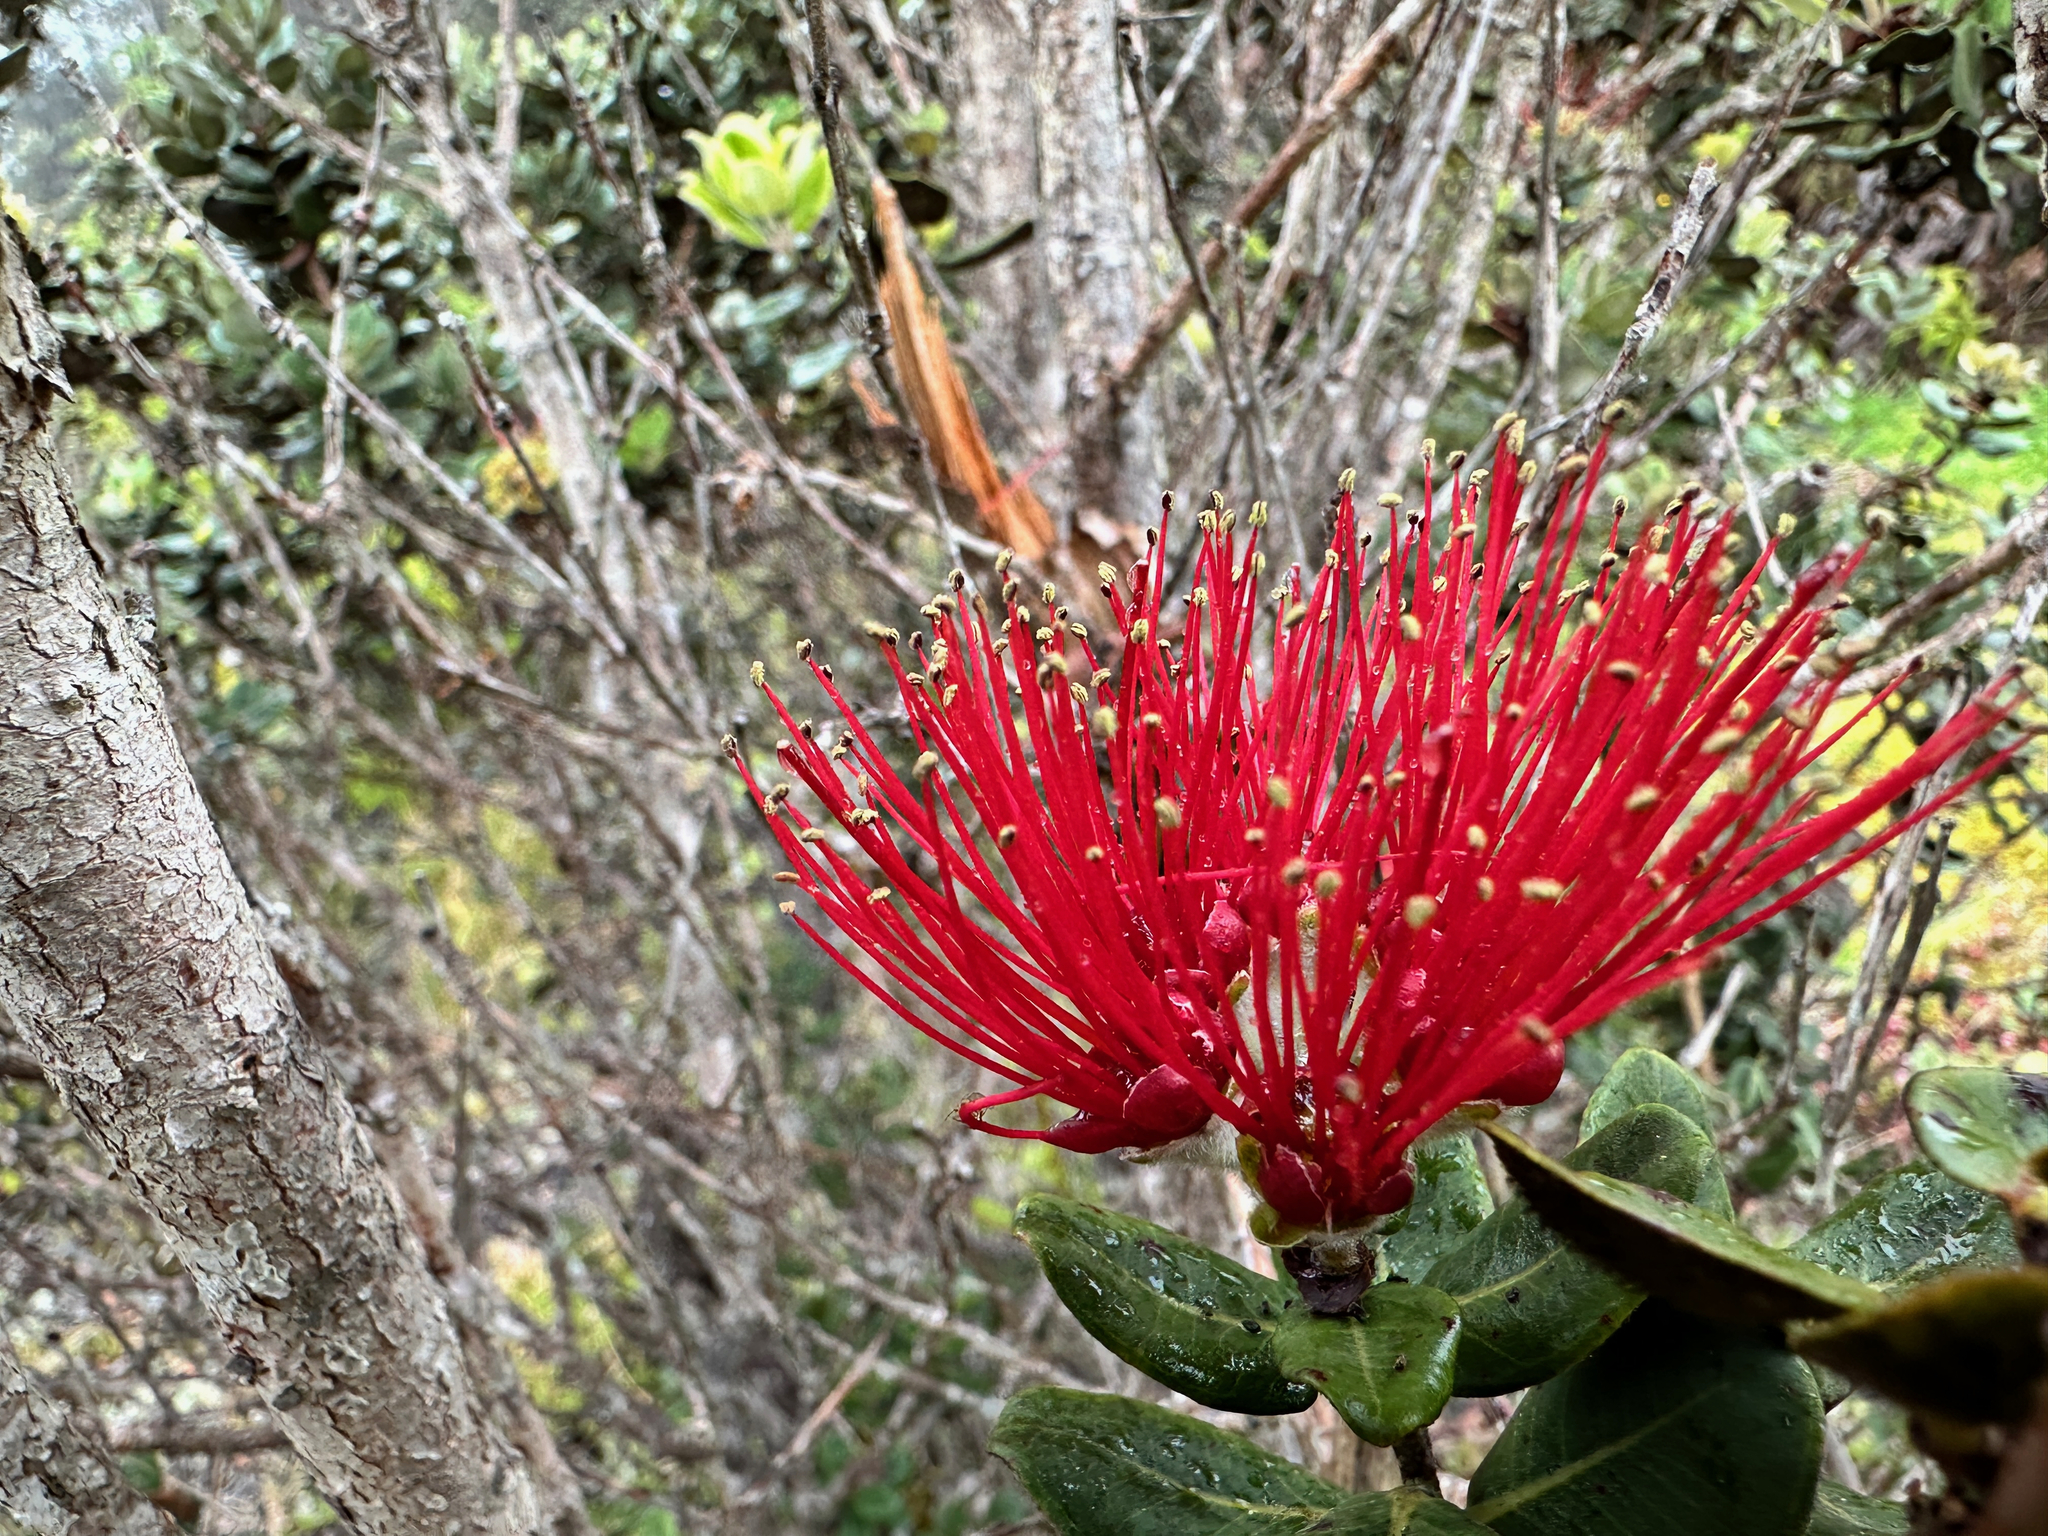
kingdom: Plantae
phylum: Tracheophyta
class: Magnoliopsida
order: Myrtales
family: Myrtaceae
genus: Metrosideros
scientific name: Metrosideros polymorpha
